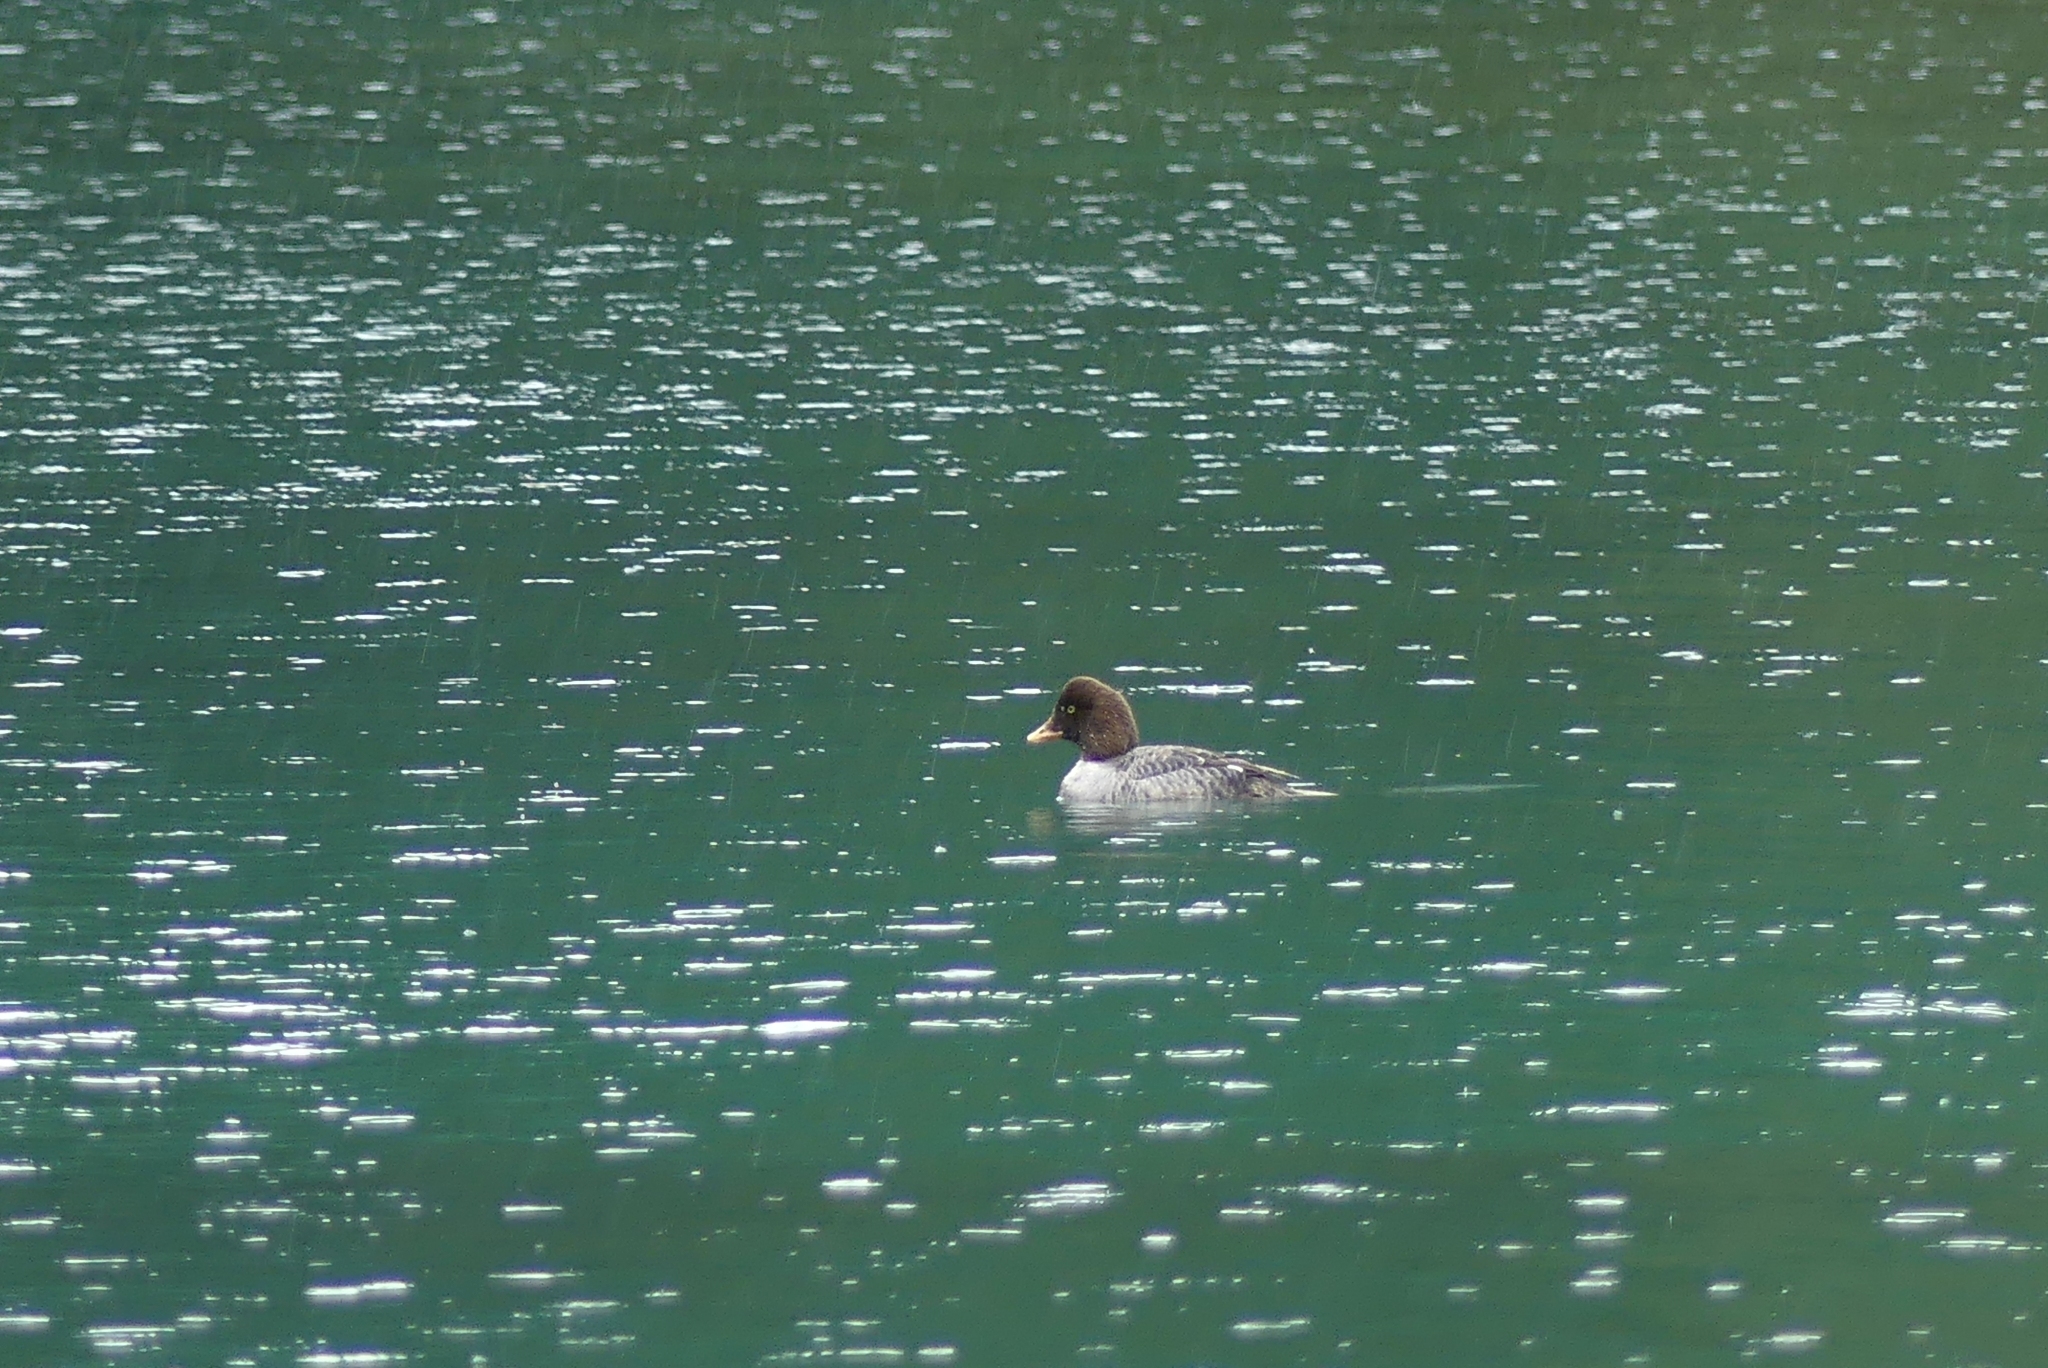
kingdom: Animalia
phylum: Chordata
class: Aves
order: Anseriformes
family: Anatidae
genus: Bucephala
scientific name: Bucephala islandica
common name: Barrow's goldeneye
